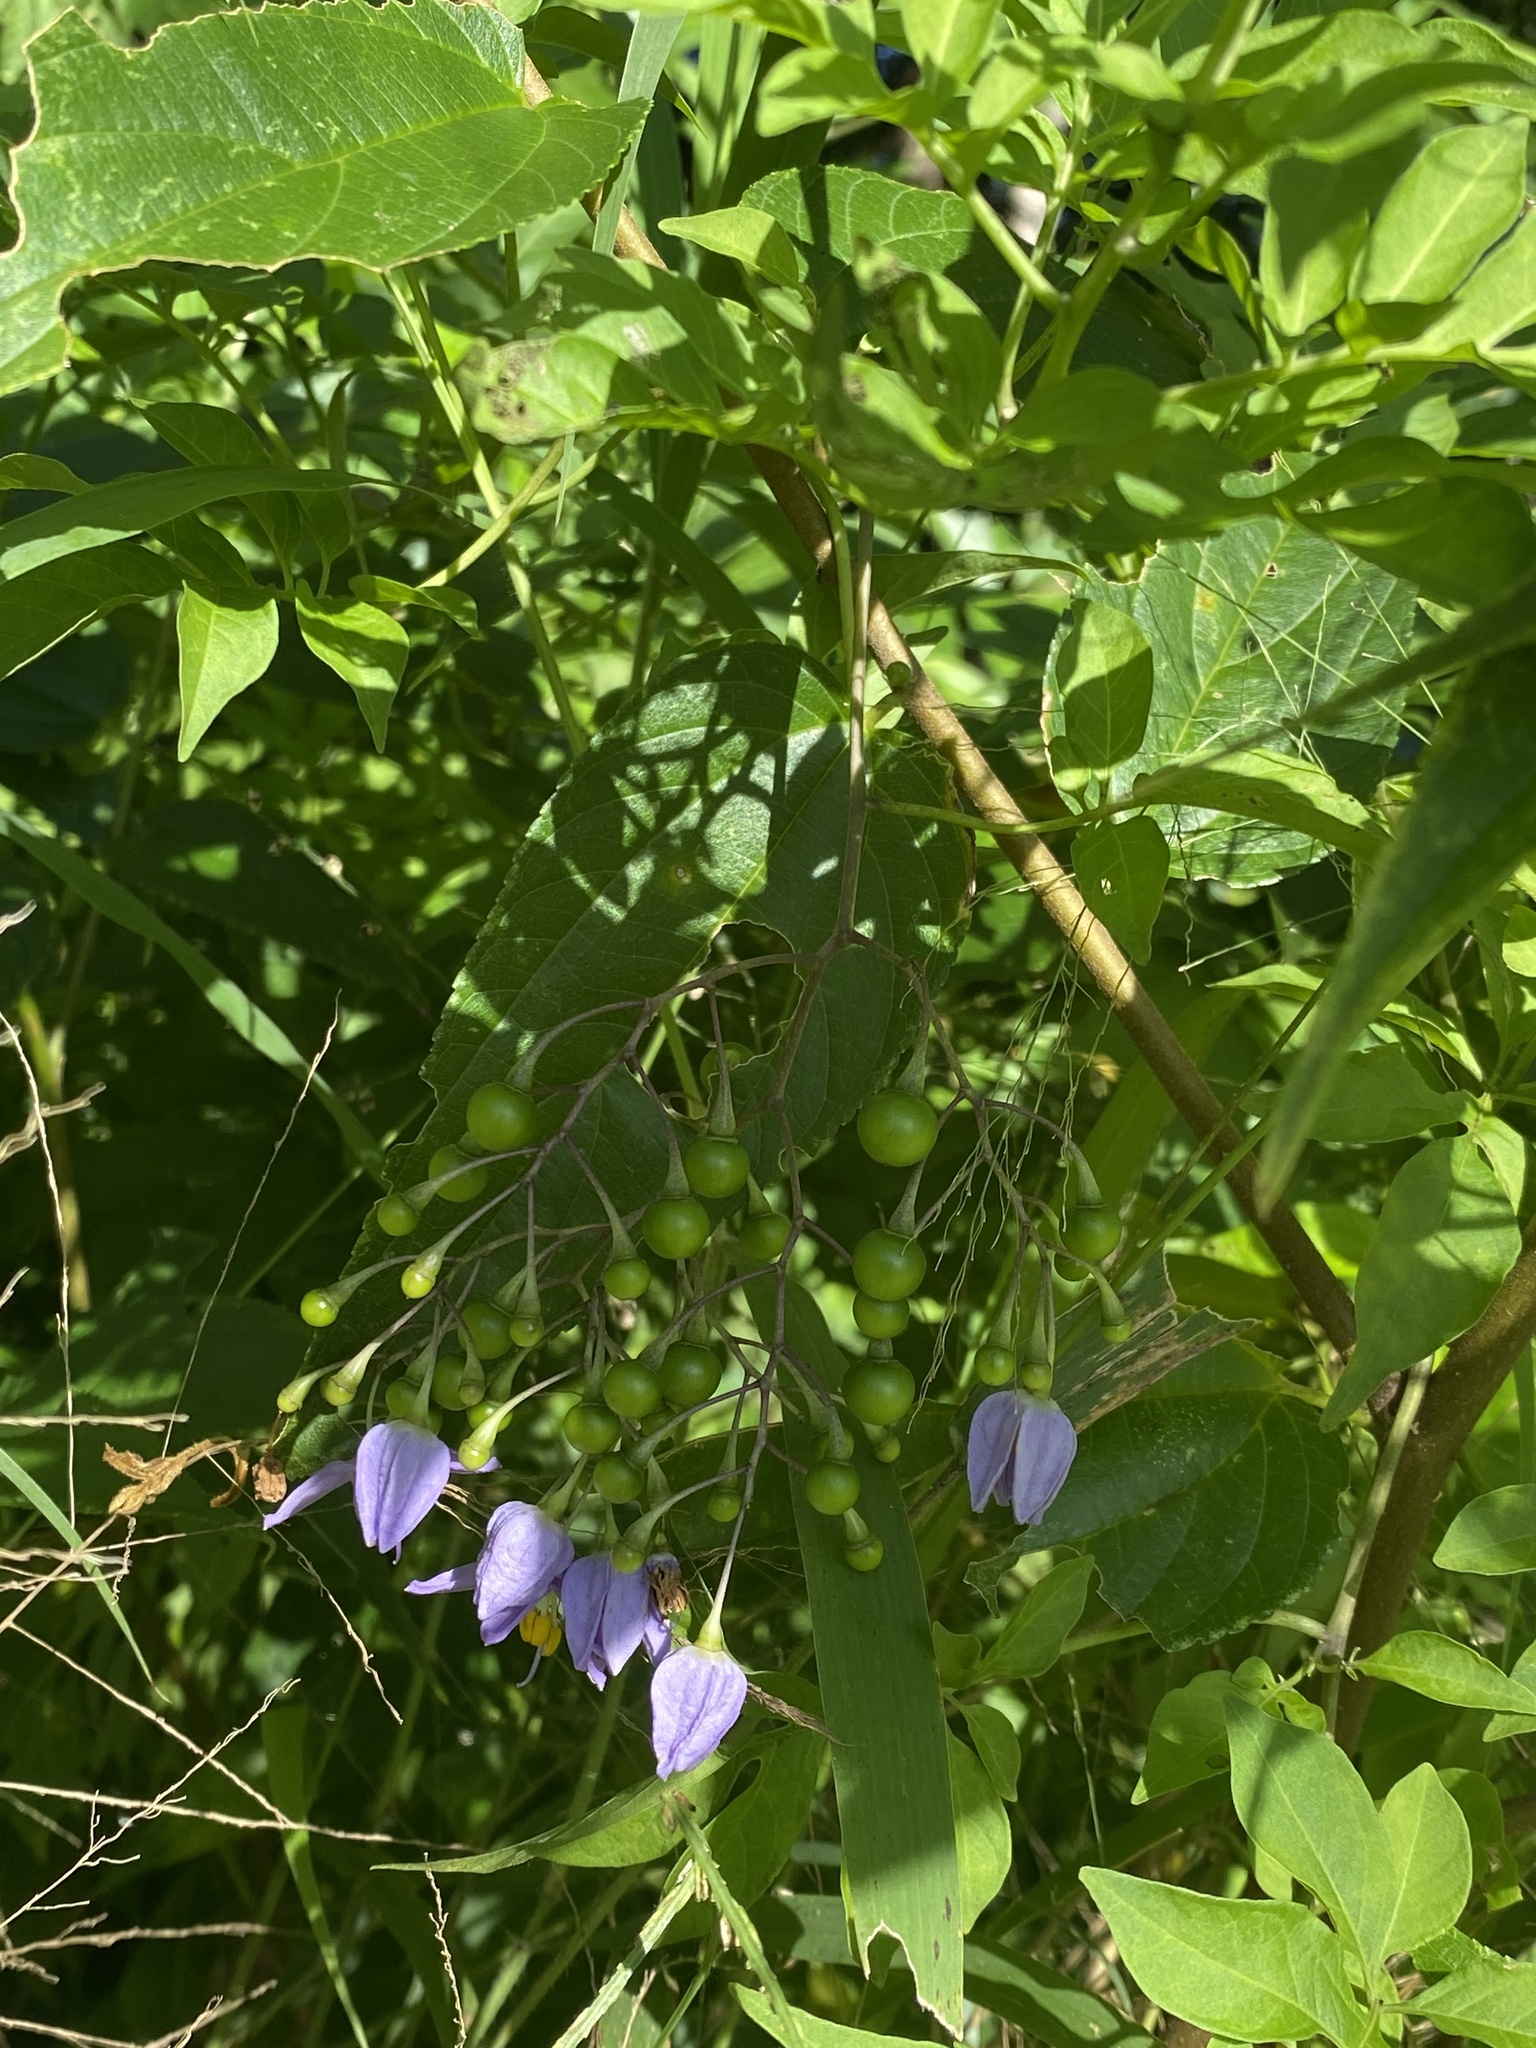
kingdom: Plantae
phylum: Tracheophyta
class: Magnoliopsida
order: Solanales
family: Solanaceae
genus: Solanum
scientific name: Solanum seaforthianum
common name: Brazilian nightshade
